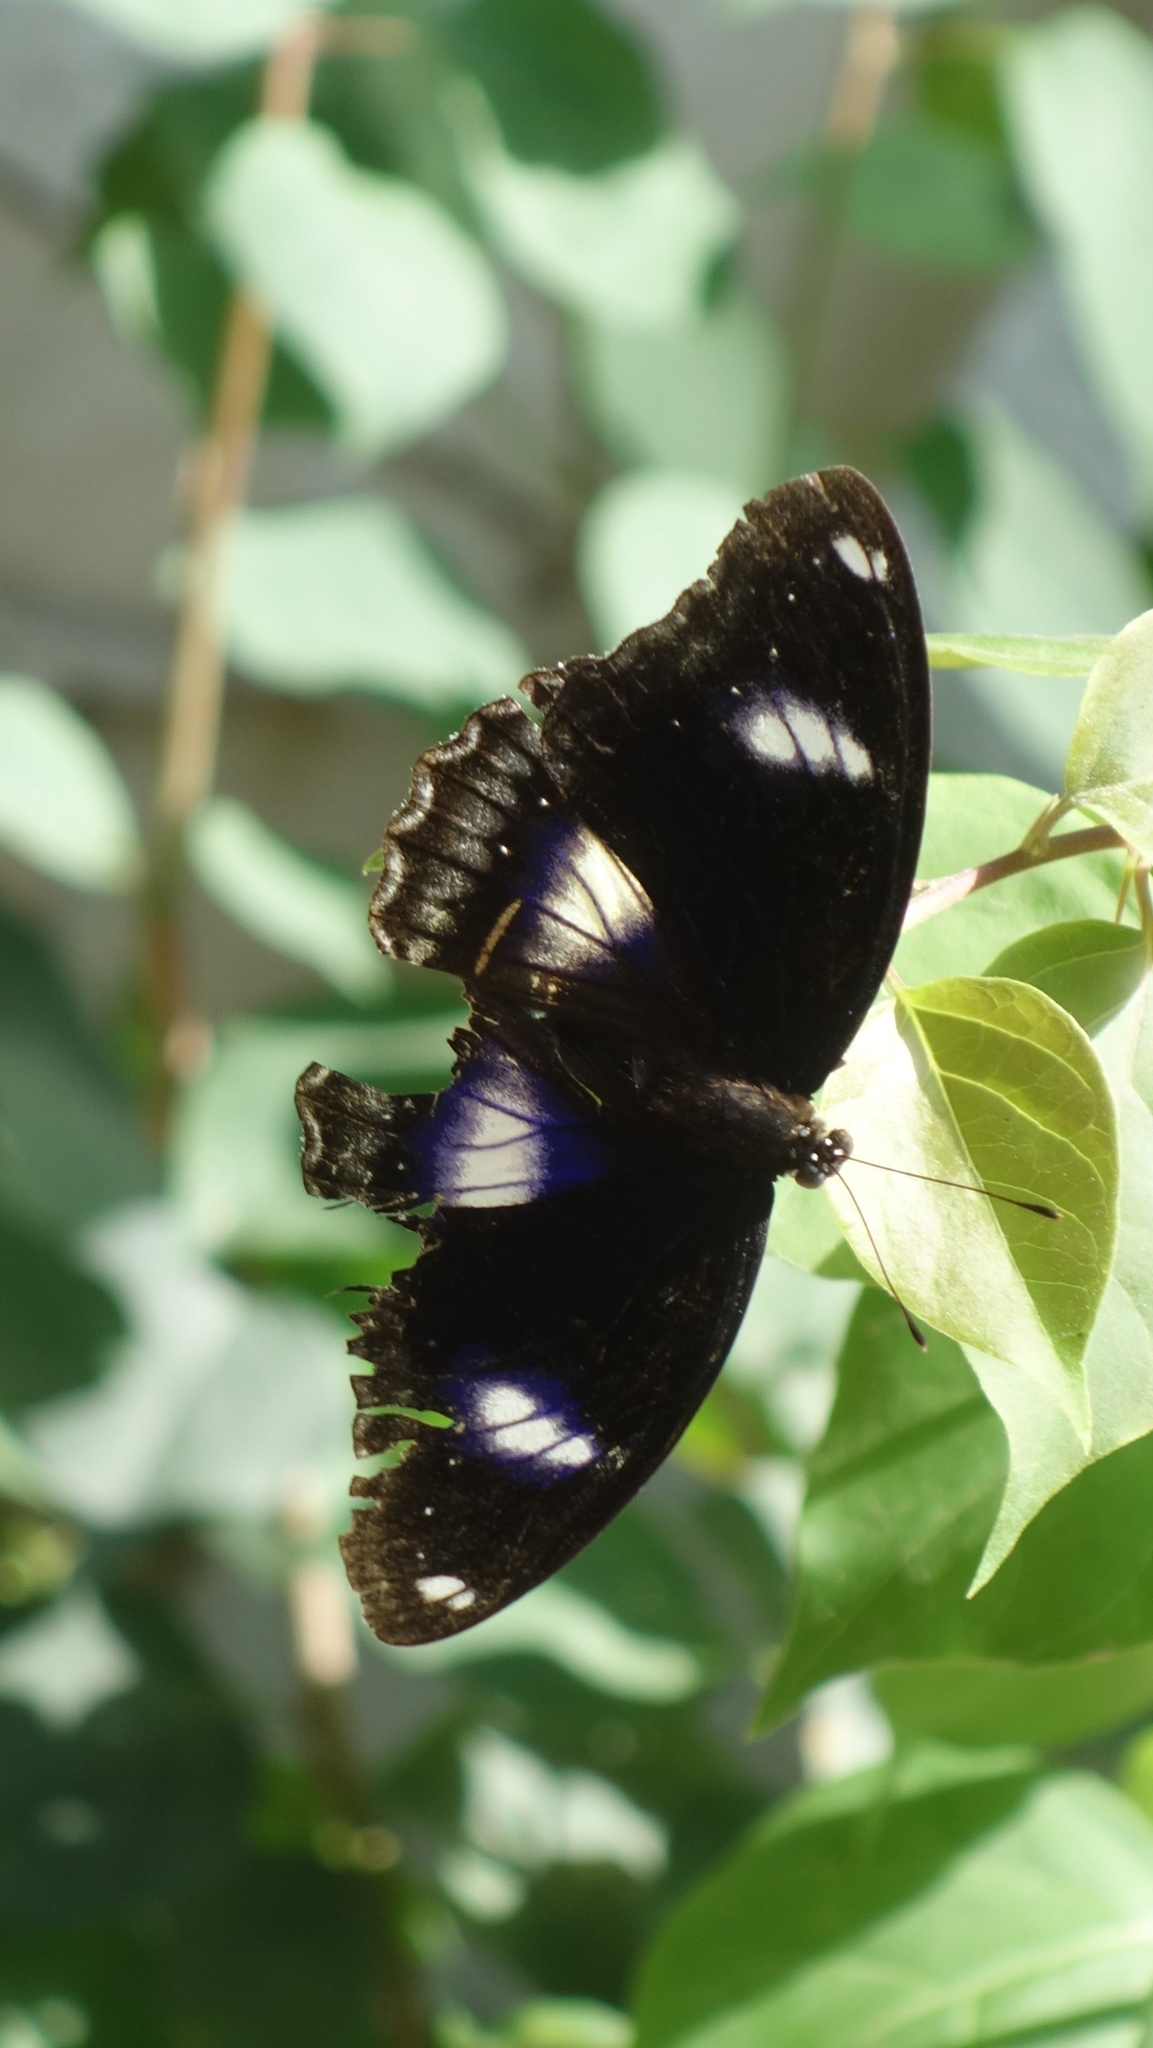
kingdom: Animalia
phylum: Arthropoda
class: Insecta
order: Lepidoptera
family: Nymphalidae
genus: Hypolimnas
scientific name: Hypolimnas bolina
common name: Great eggfly
